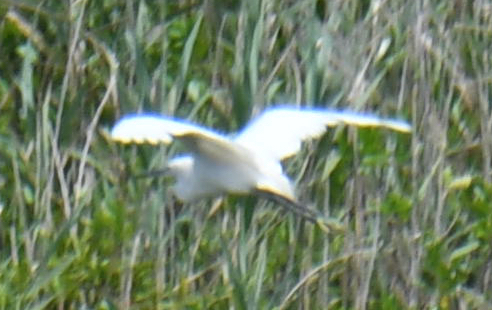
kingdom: Animalia
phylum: Chordata
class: Aves
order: Pelecaniformes
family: Ardeidae
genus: Egretta
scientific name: Egretta garzetta
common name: Little egret
